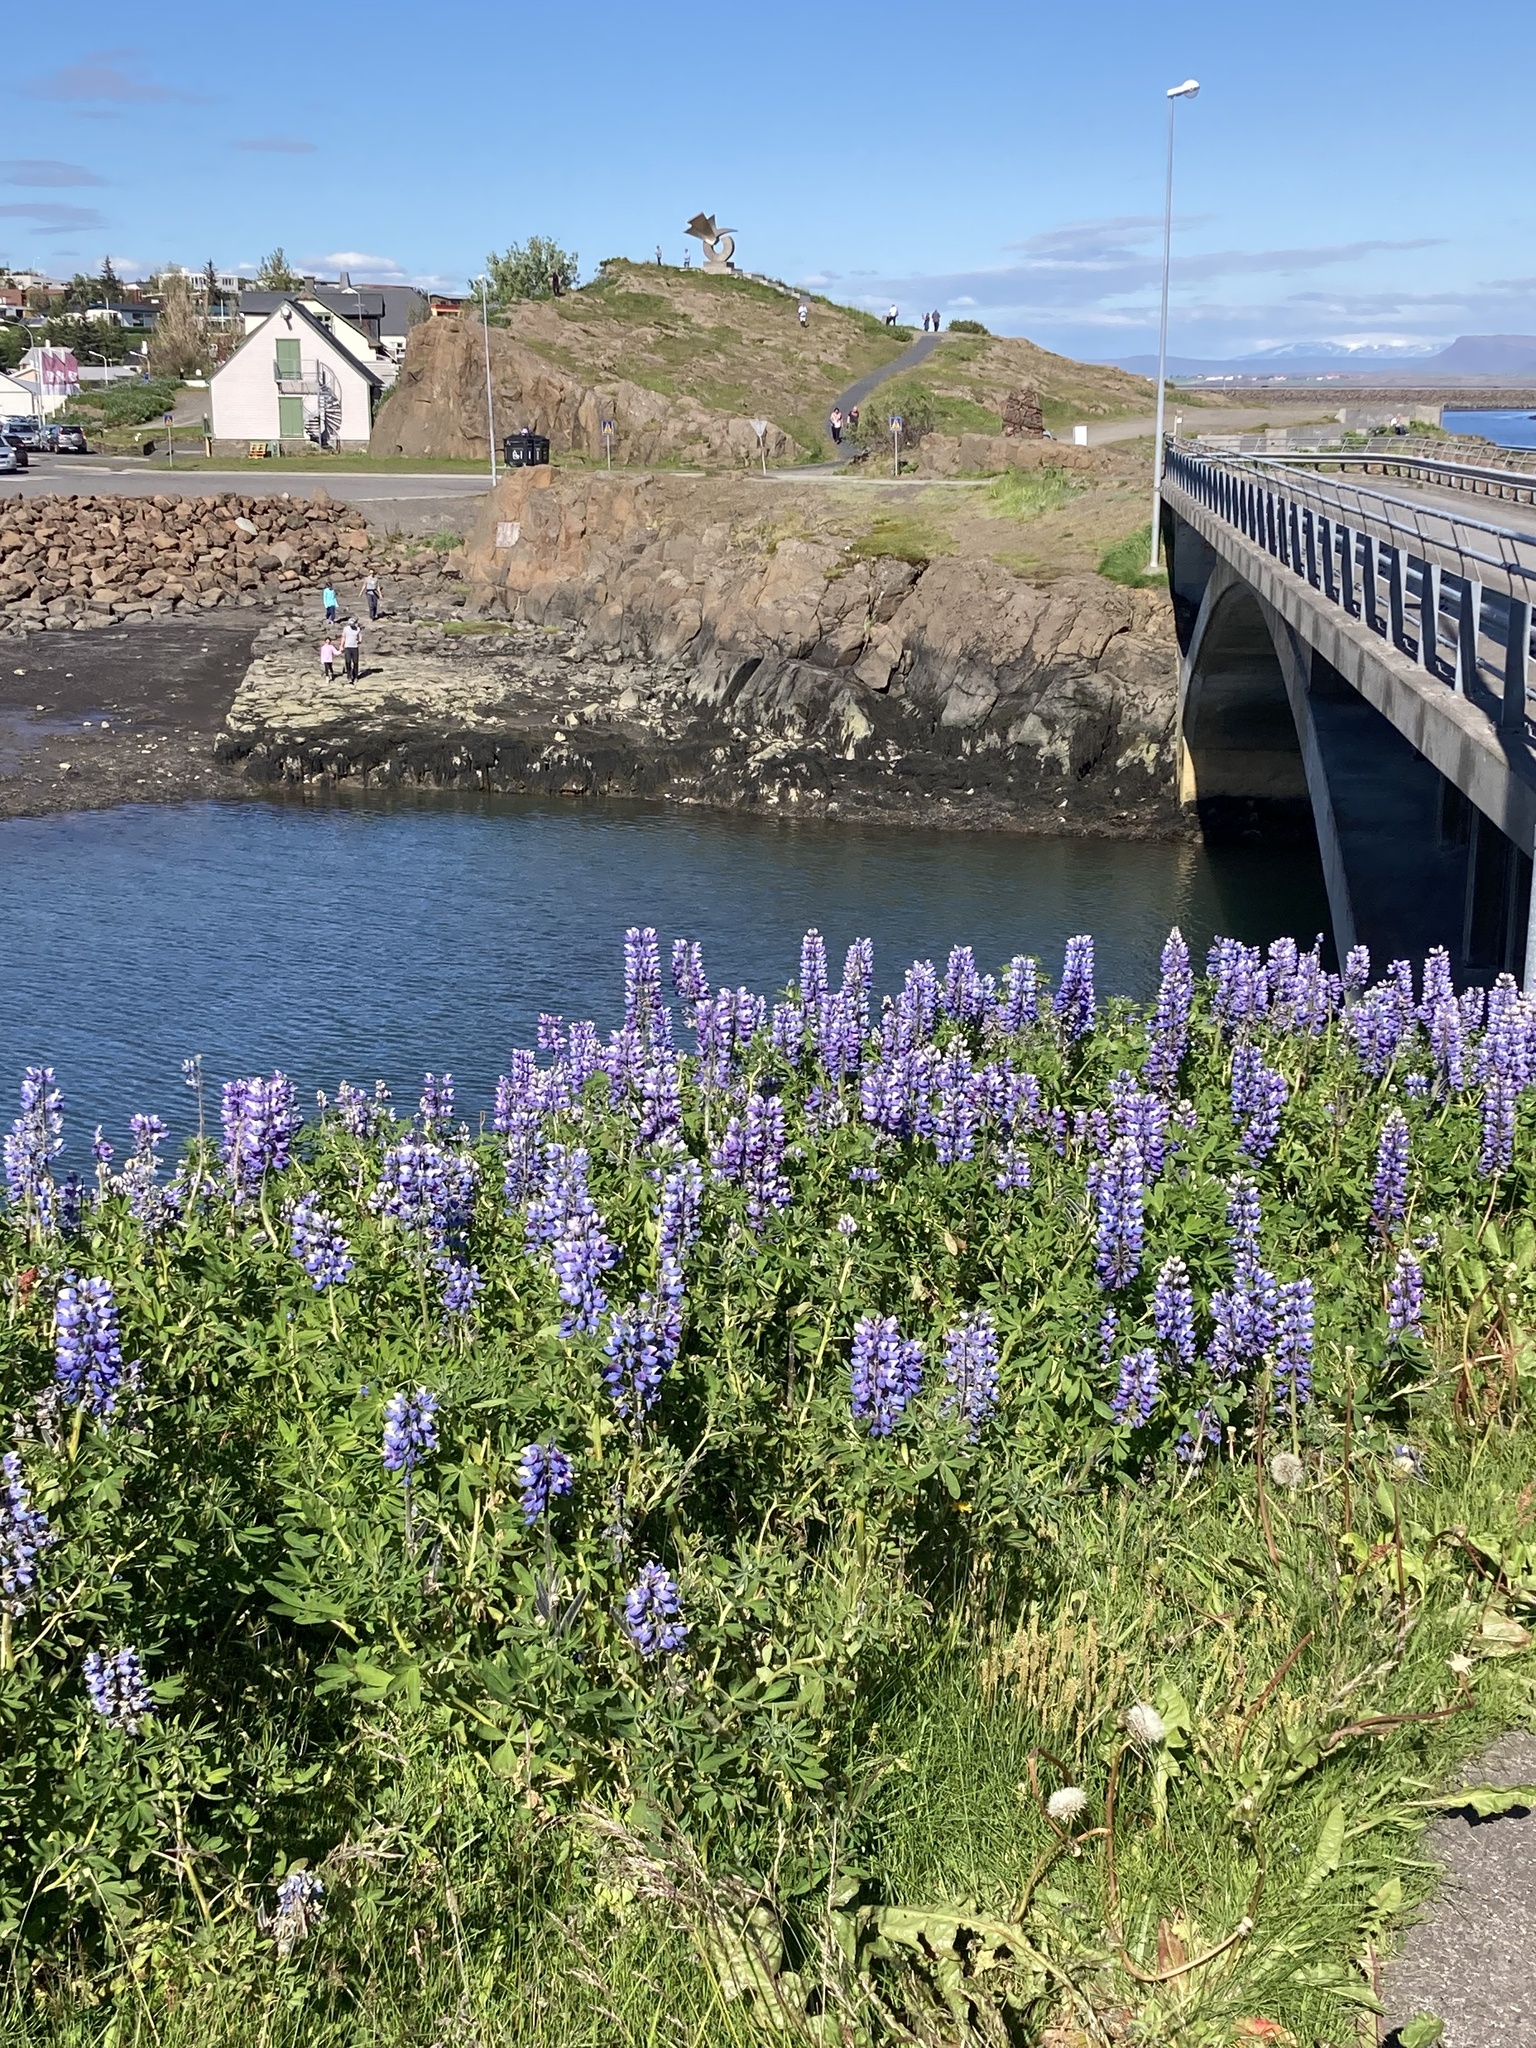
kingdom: Plantae
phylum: Tracheophyta
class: Magnoliopsida
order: Fabales
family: Fabaceae
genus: Lupinus
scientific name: Lupinus nootkatensis
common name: Nootka lupine
